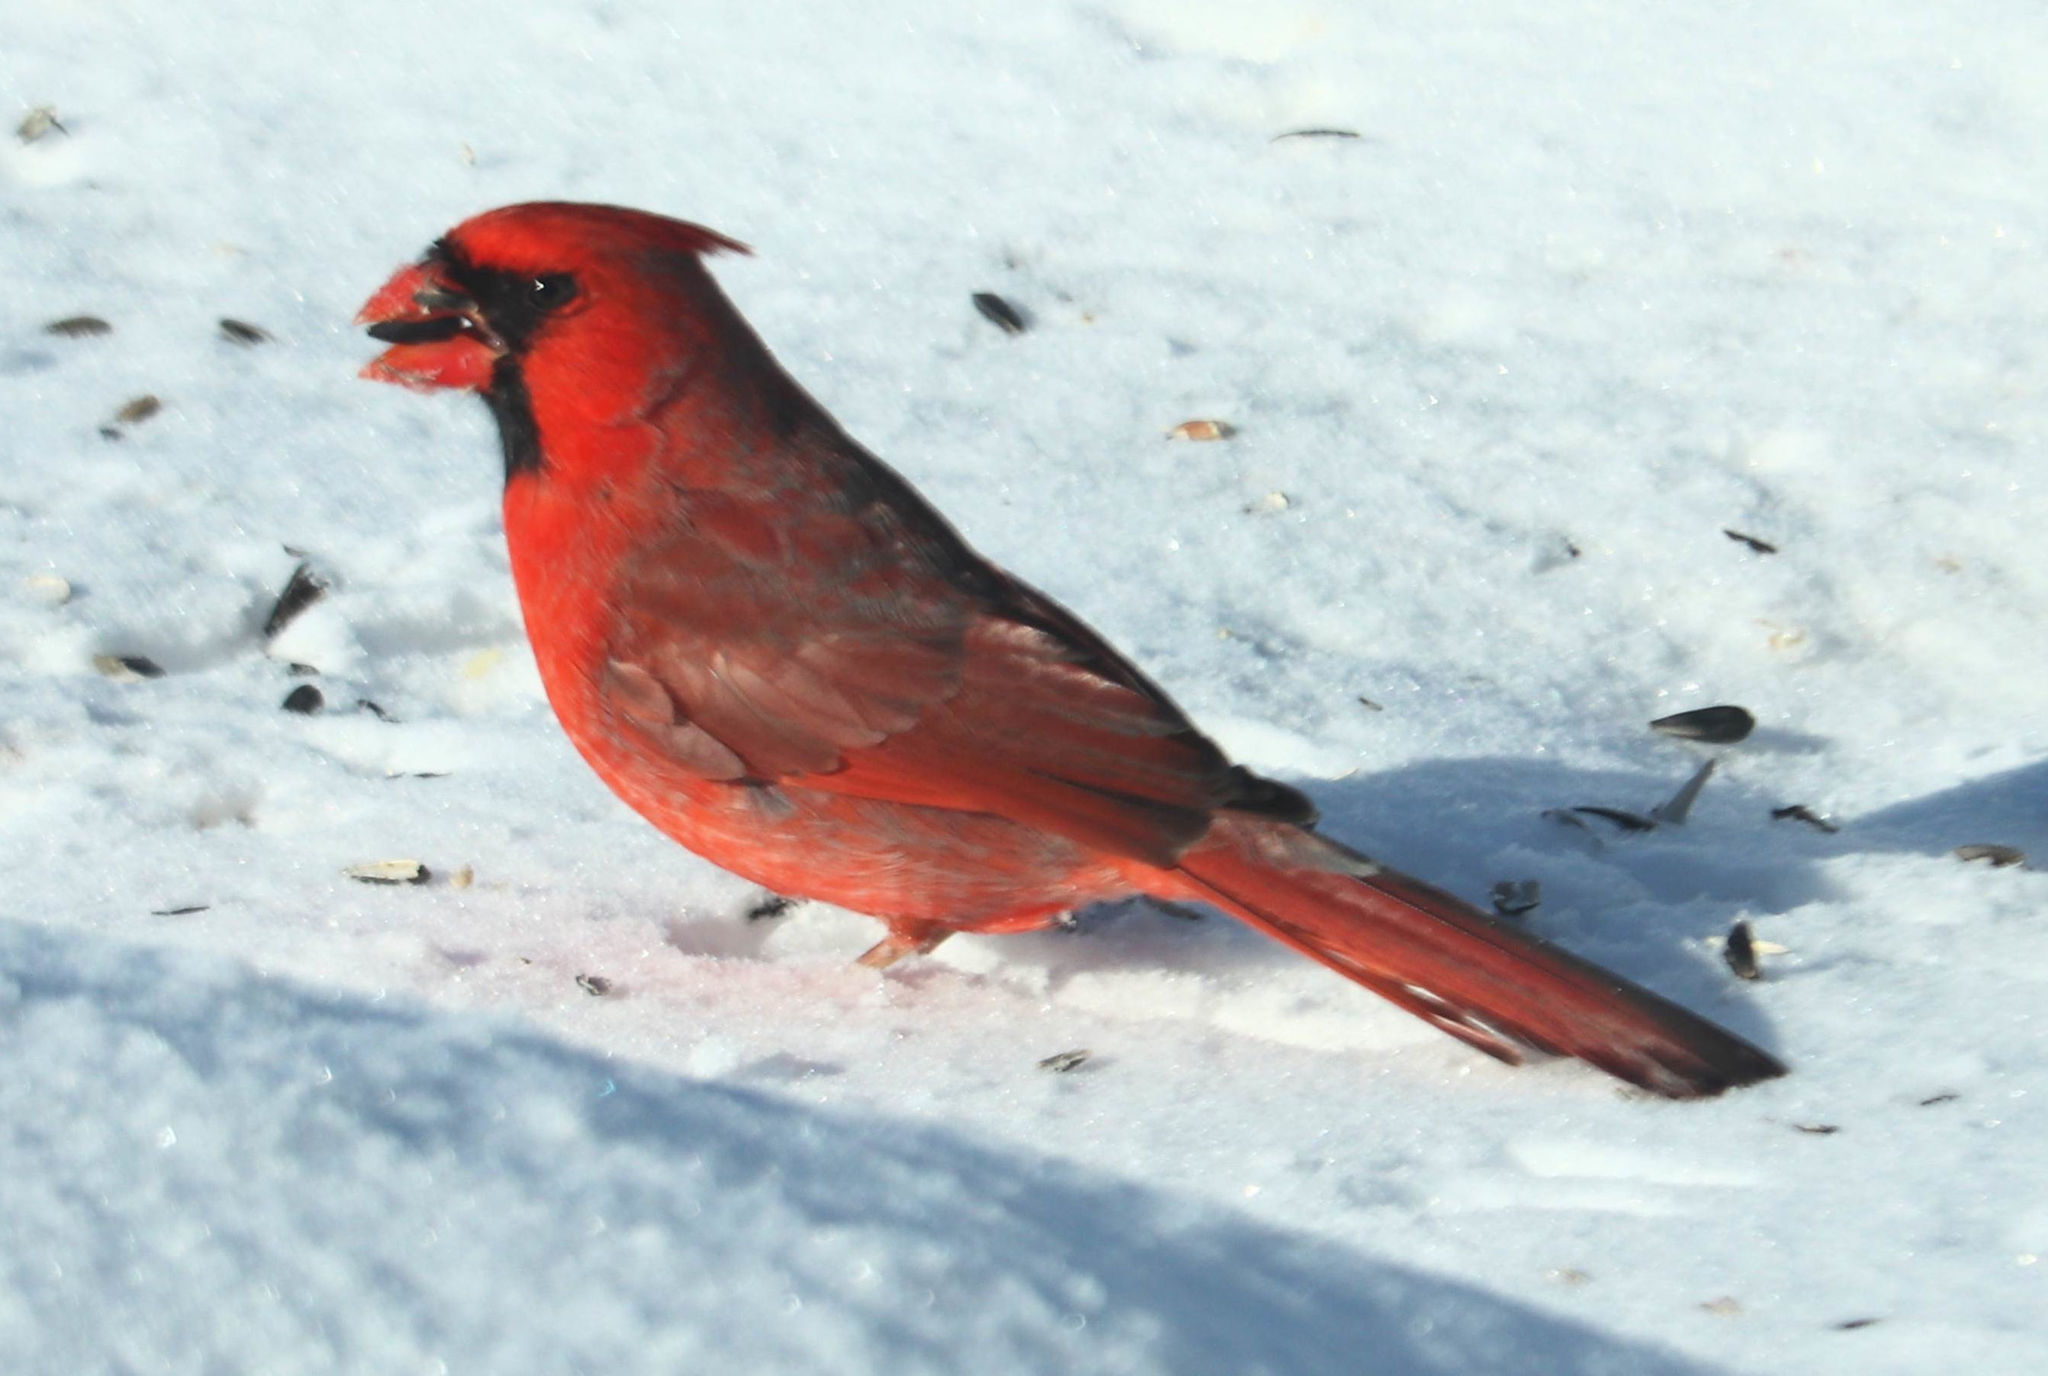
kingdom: Animalia
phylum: Chordata
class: Aves
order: Passeriformes
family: Cardinalidae
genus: Cardinalis
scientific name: Cardinalis cardinalis
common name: Northern cardinal
